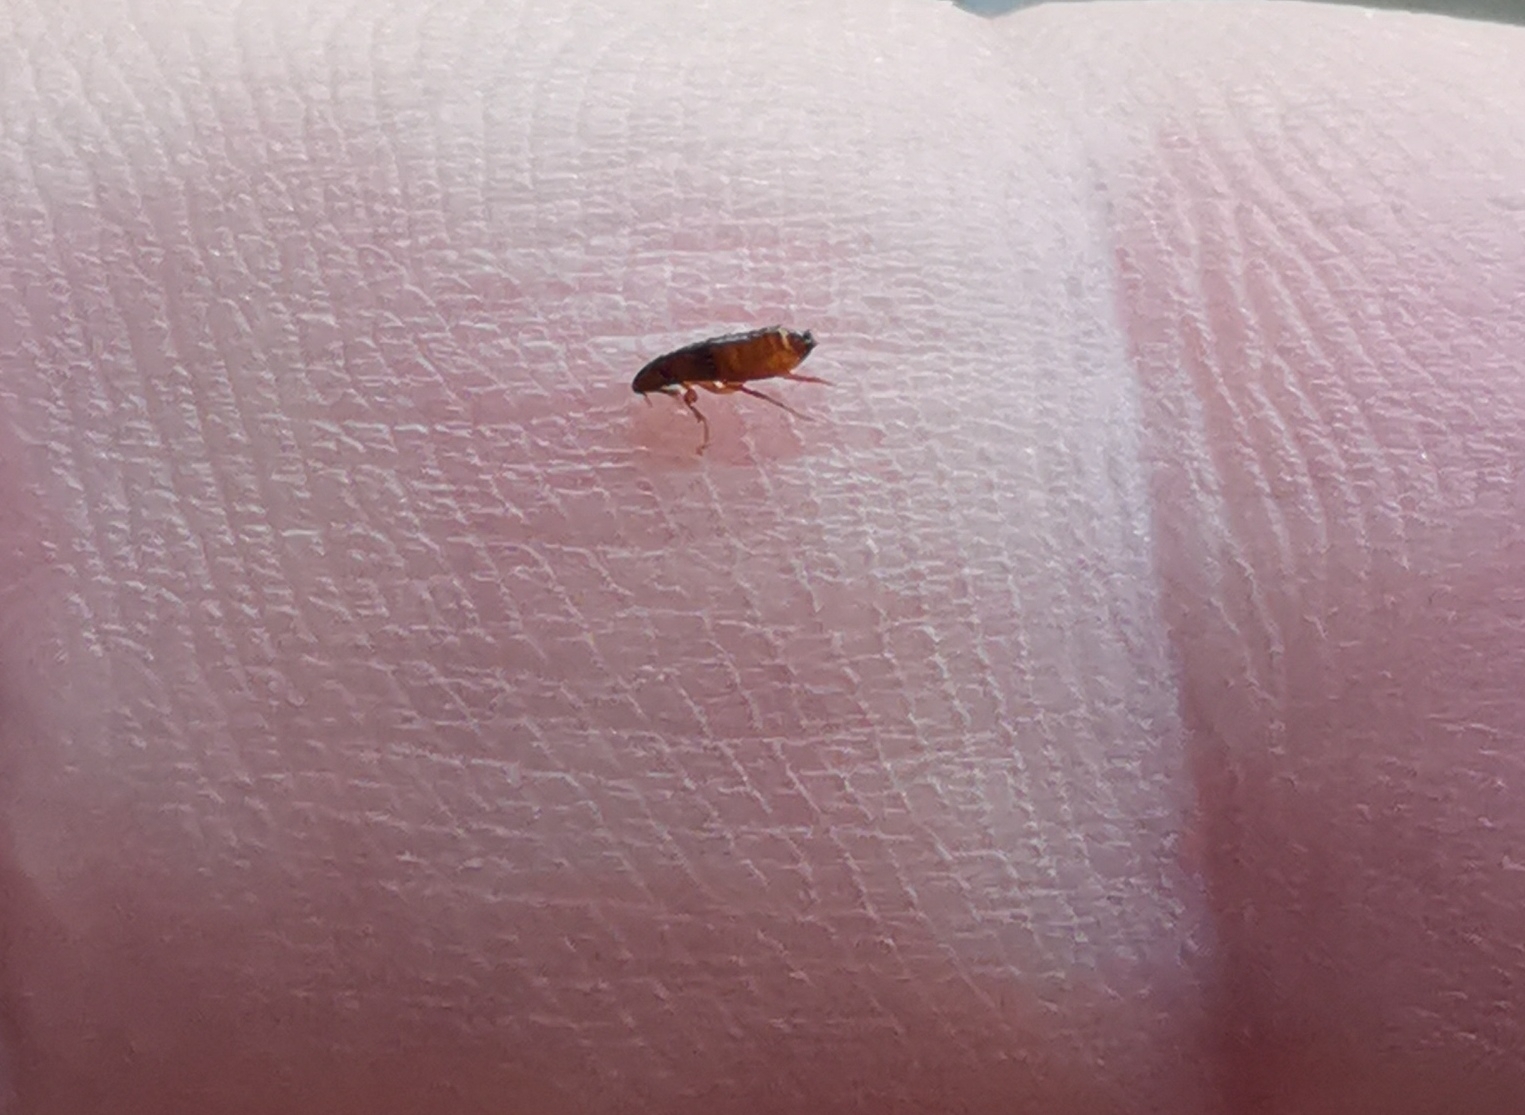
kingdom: Animalia
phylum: Arthropoda
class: Insecta
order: Siphonaptera
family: Pulicidae
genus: Ctenocephalides
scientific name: Ctenocephalides felis
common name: Cat flea
